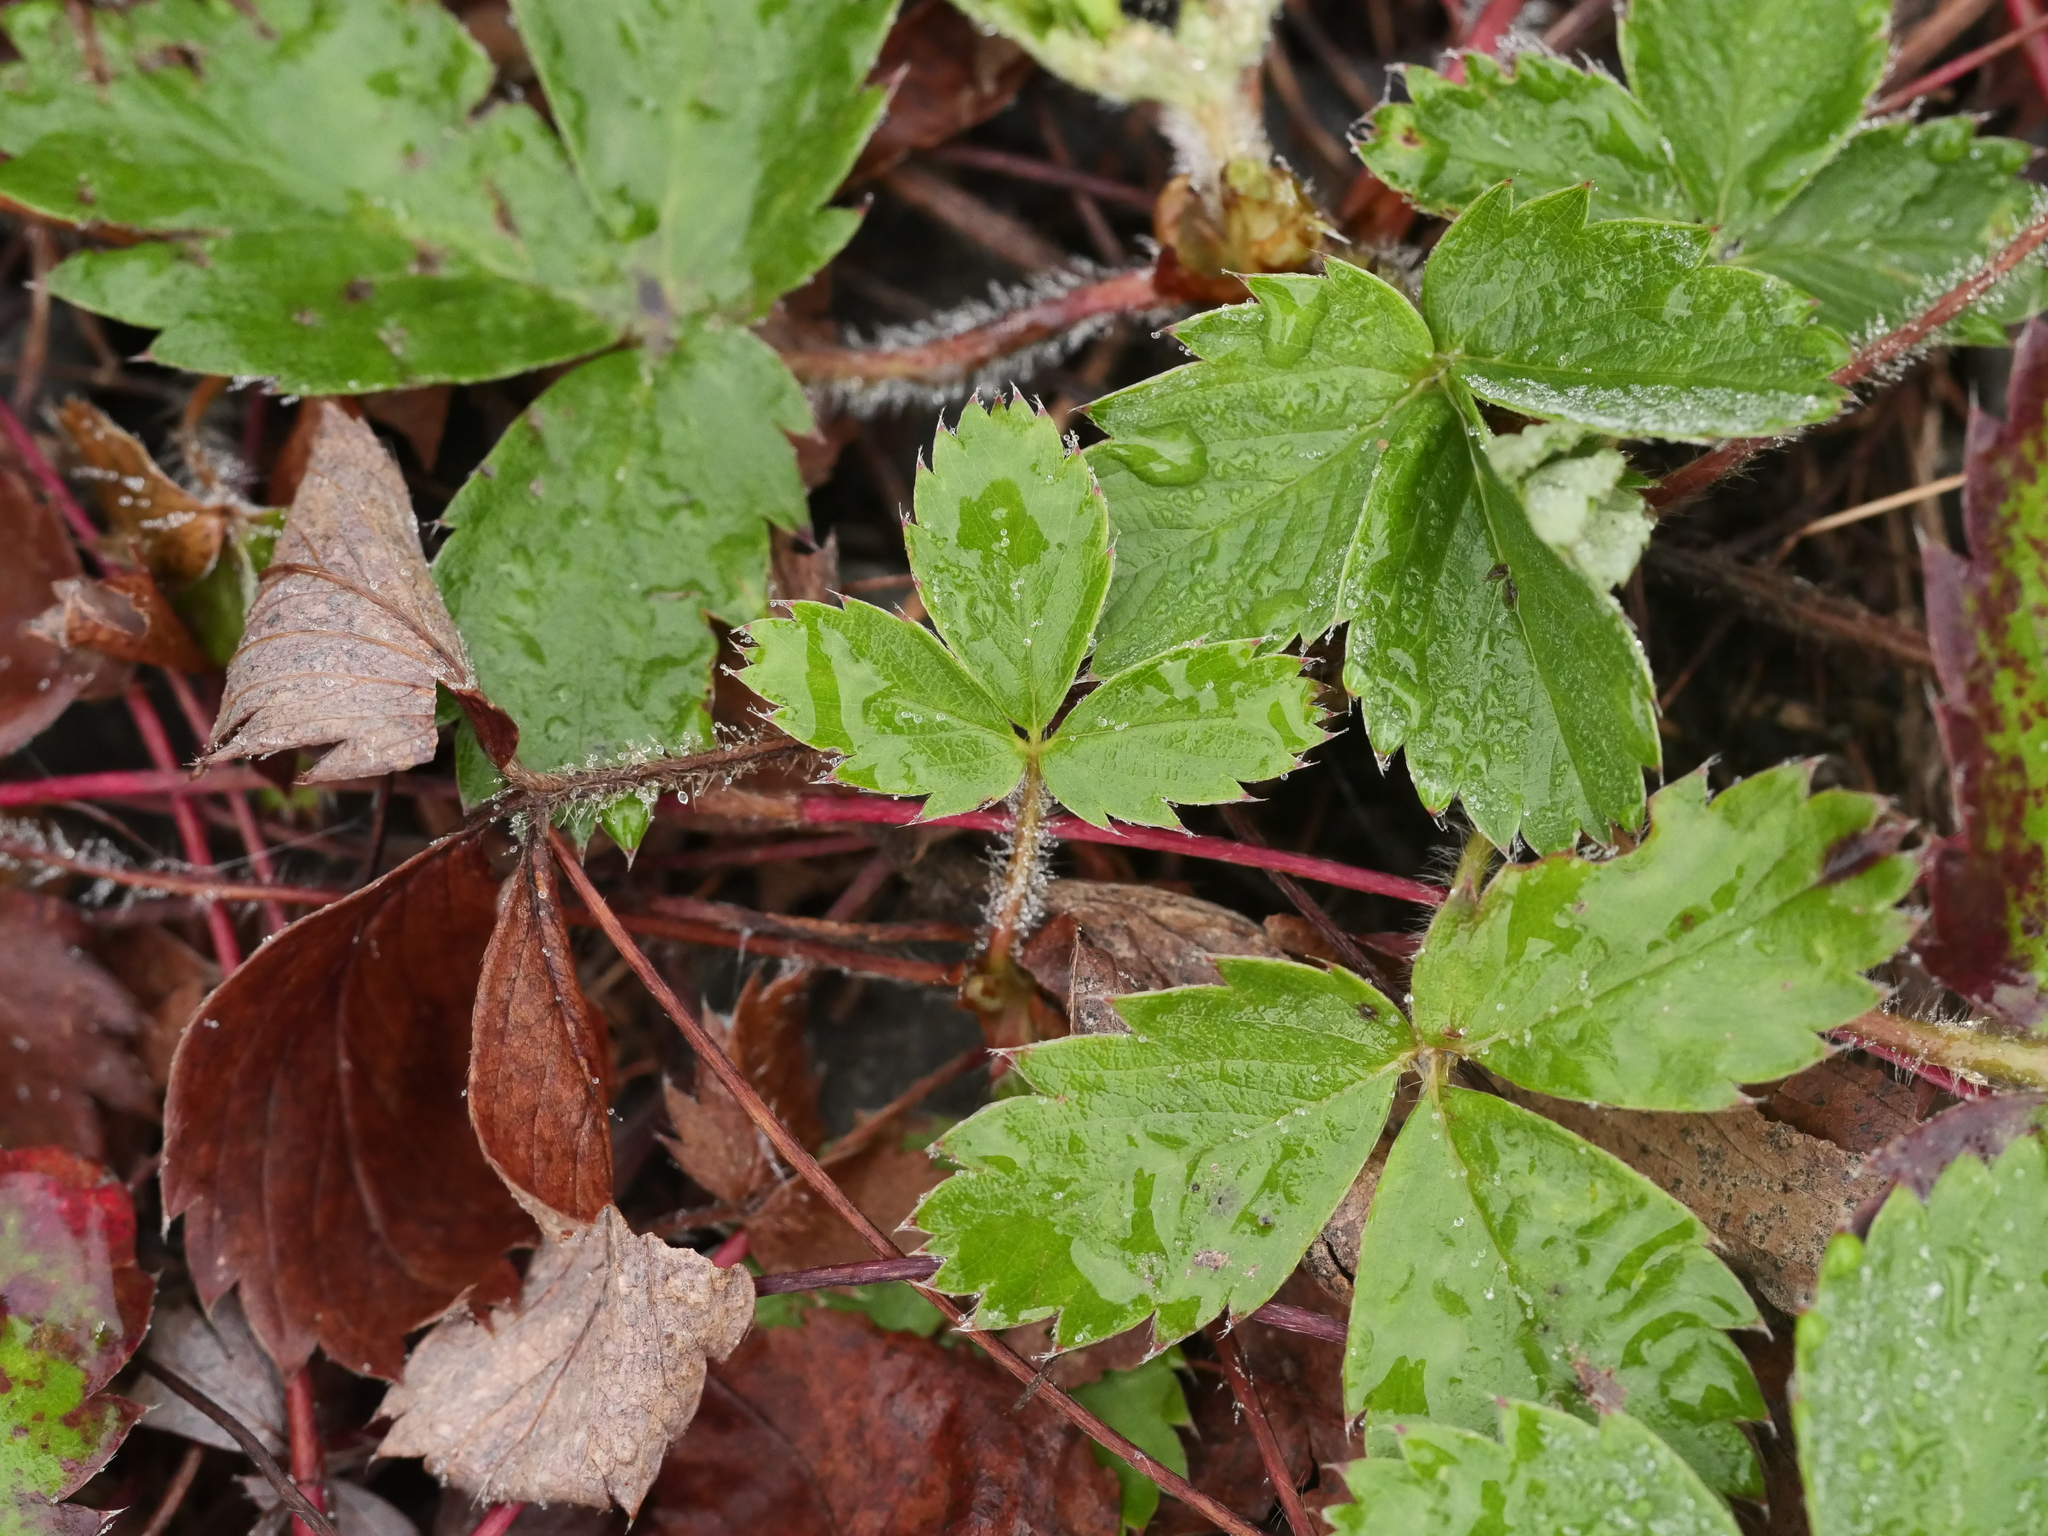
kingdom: Plantae
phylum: Tracheophyta
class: Magnoliopsida
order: Rosales
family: Rosaceae
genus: Fragaria
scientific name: Fragaria virginiana
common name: Thickleaved wild strawberry
